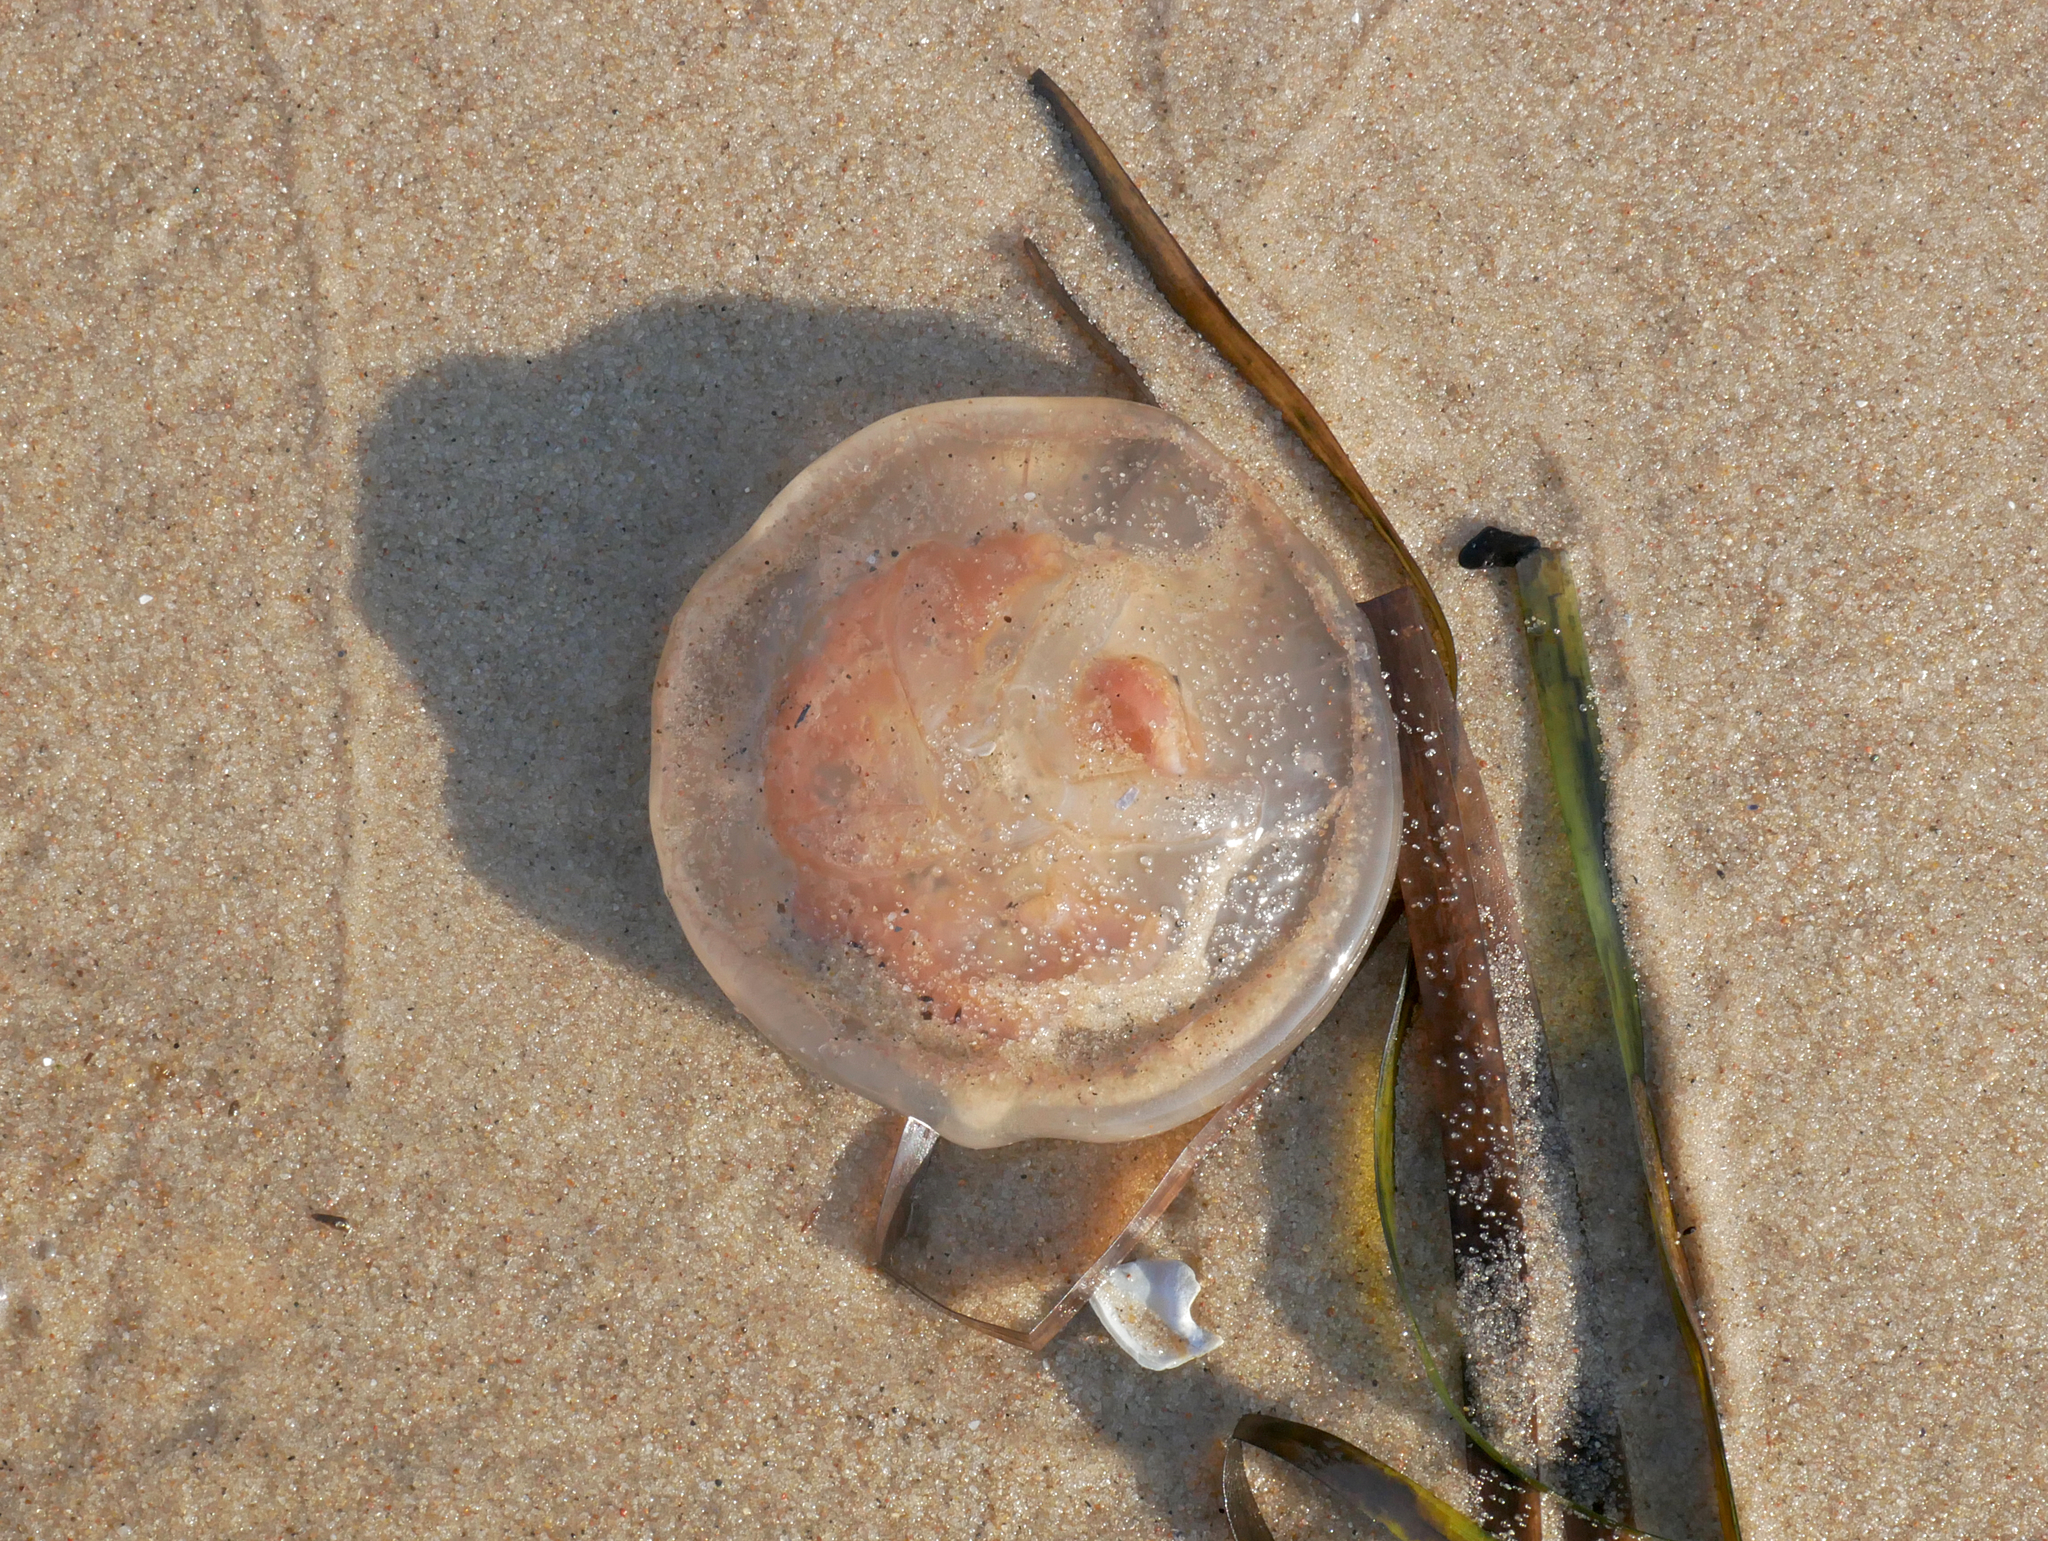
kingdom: Animalia
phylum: Cnidaria
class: Scyphozoa
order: Semaeostomeae
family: Ulmaridae
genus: Aurelia
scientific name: Aurelia aurita
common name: Moon jellyfish
